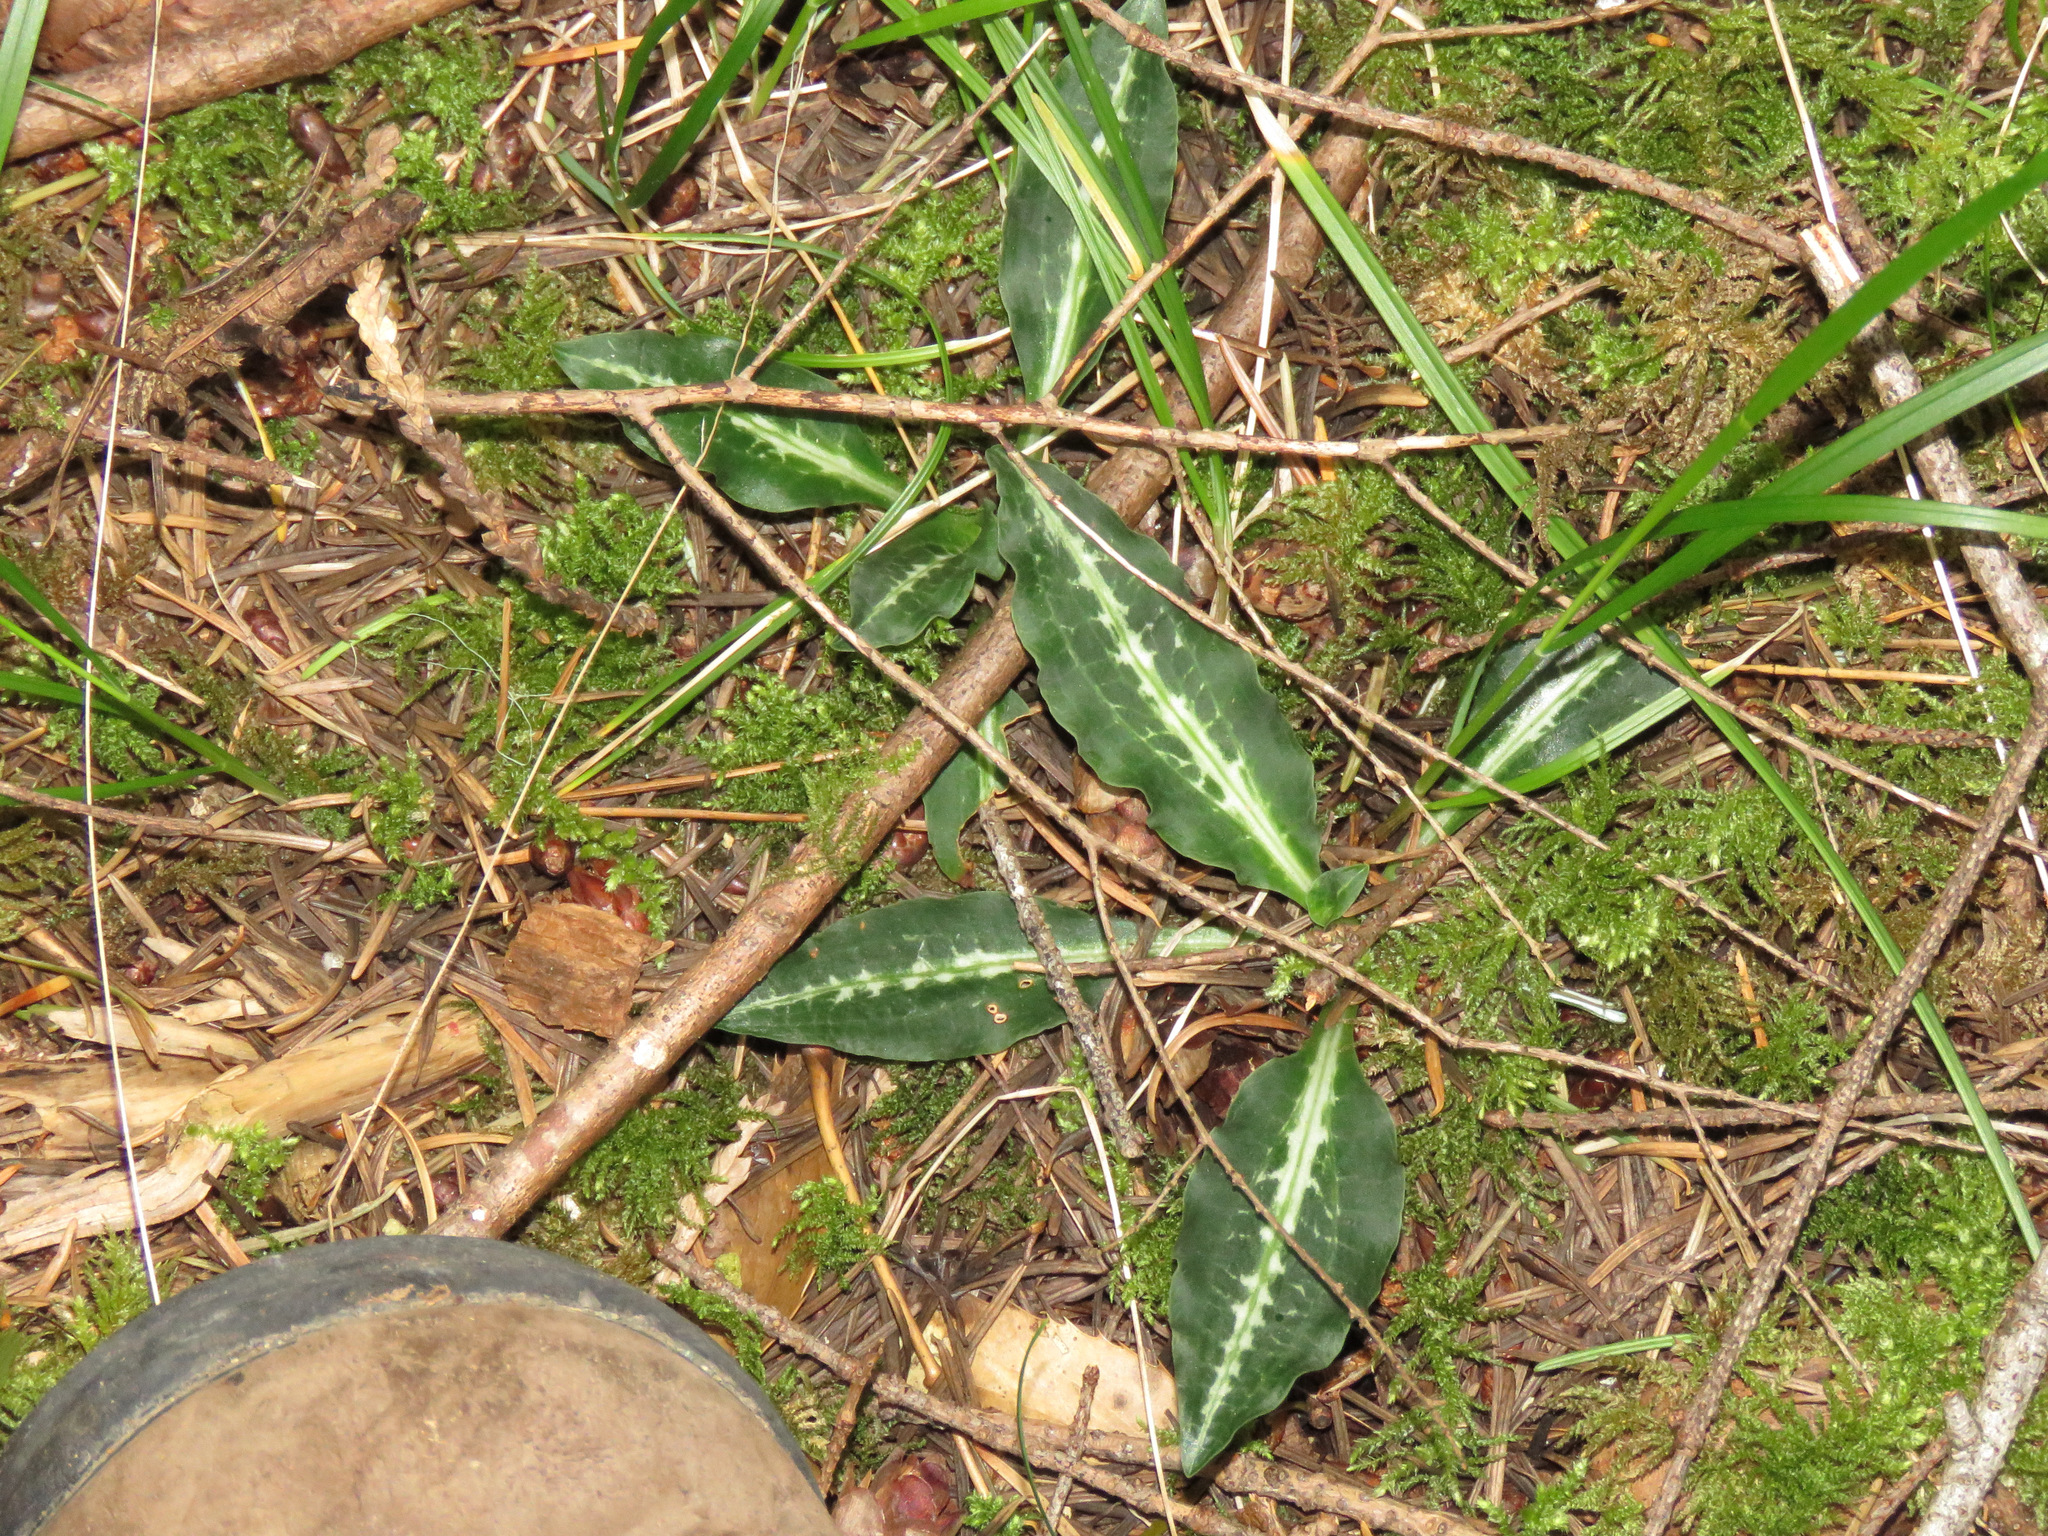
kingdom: Plantae
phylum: Tracheophyta
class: Liliopsida
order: Asparagales
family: Orchidaceae
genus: Goodyera
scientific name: Goodyera oblongifolia
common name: Giant rattlesnake-plantain
